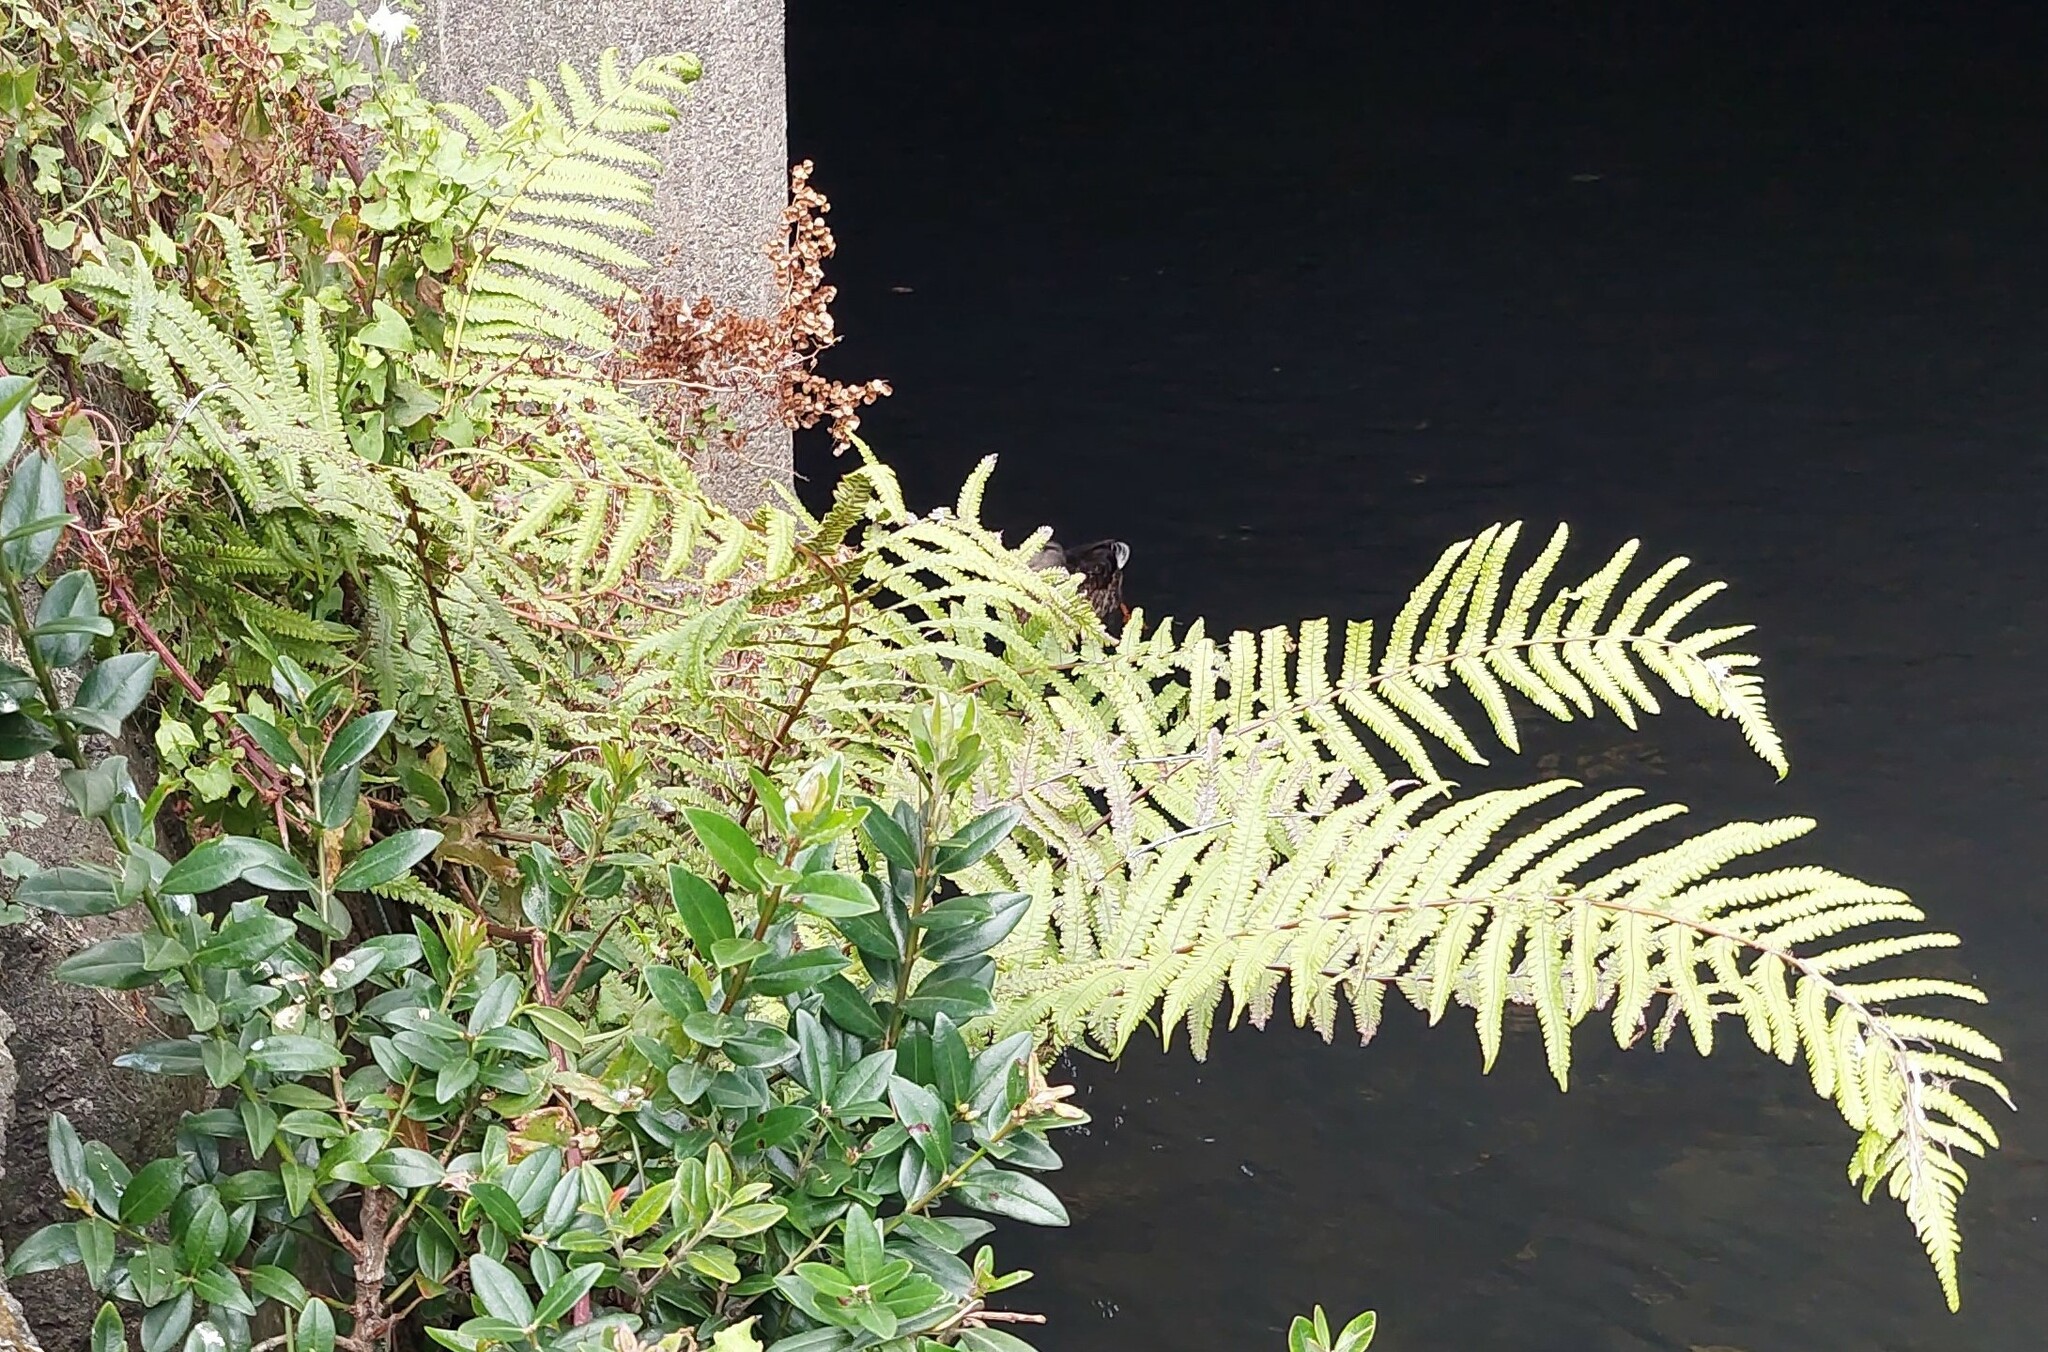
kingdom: Plantae
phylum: Tracheophyta
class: Polypodiopsida
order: Polypodiales
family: Thelypteridaceae
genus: Christella
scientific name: Christella dentata
